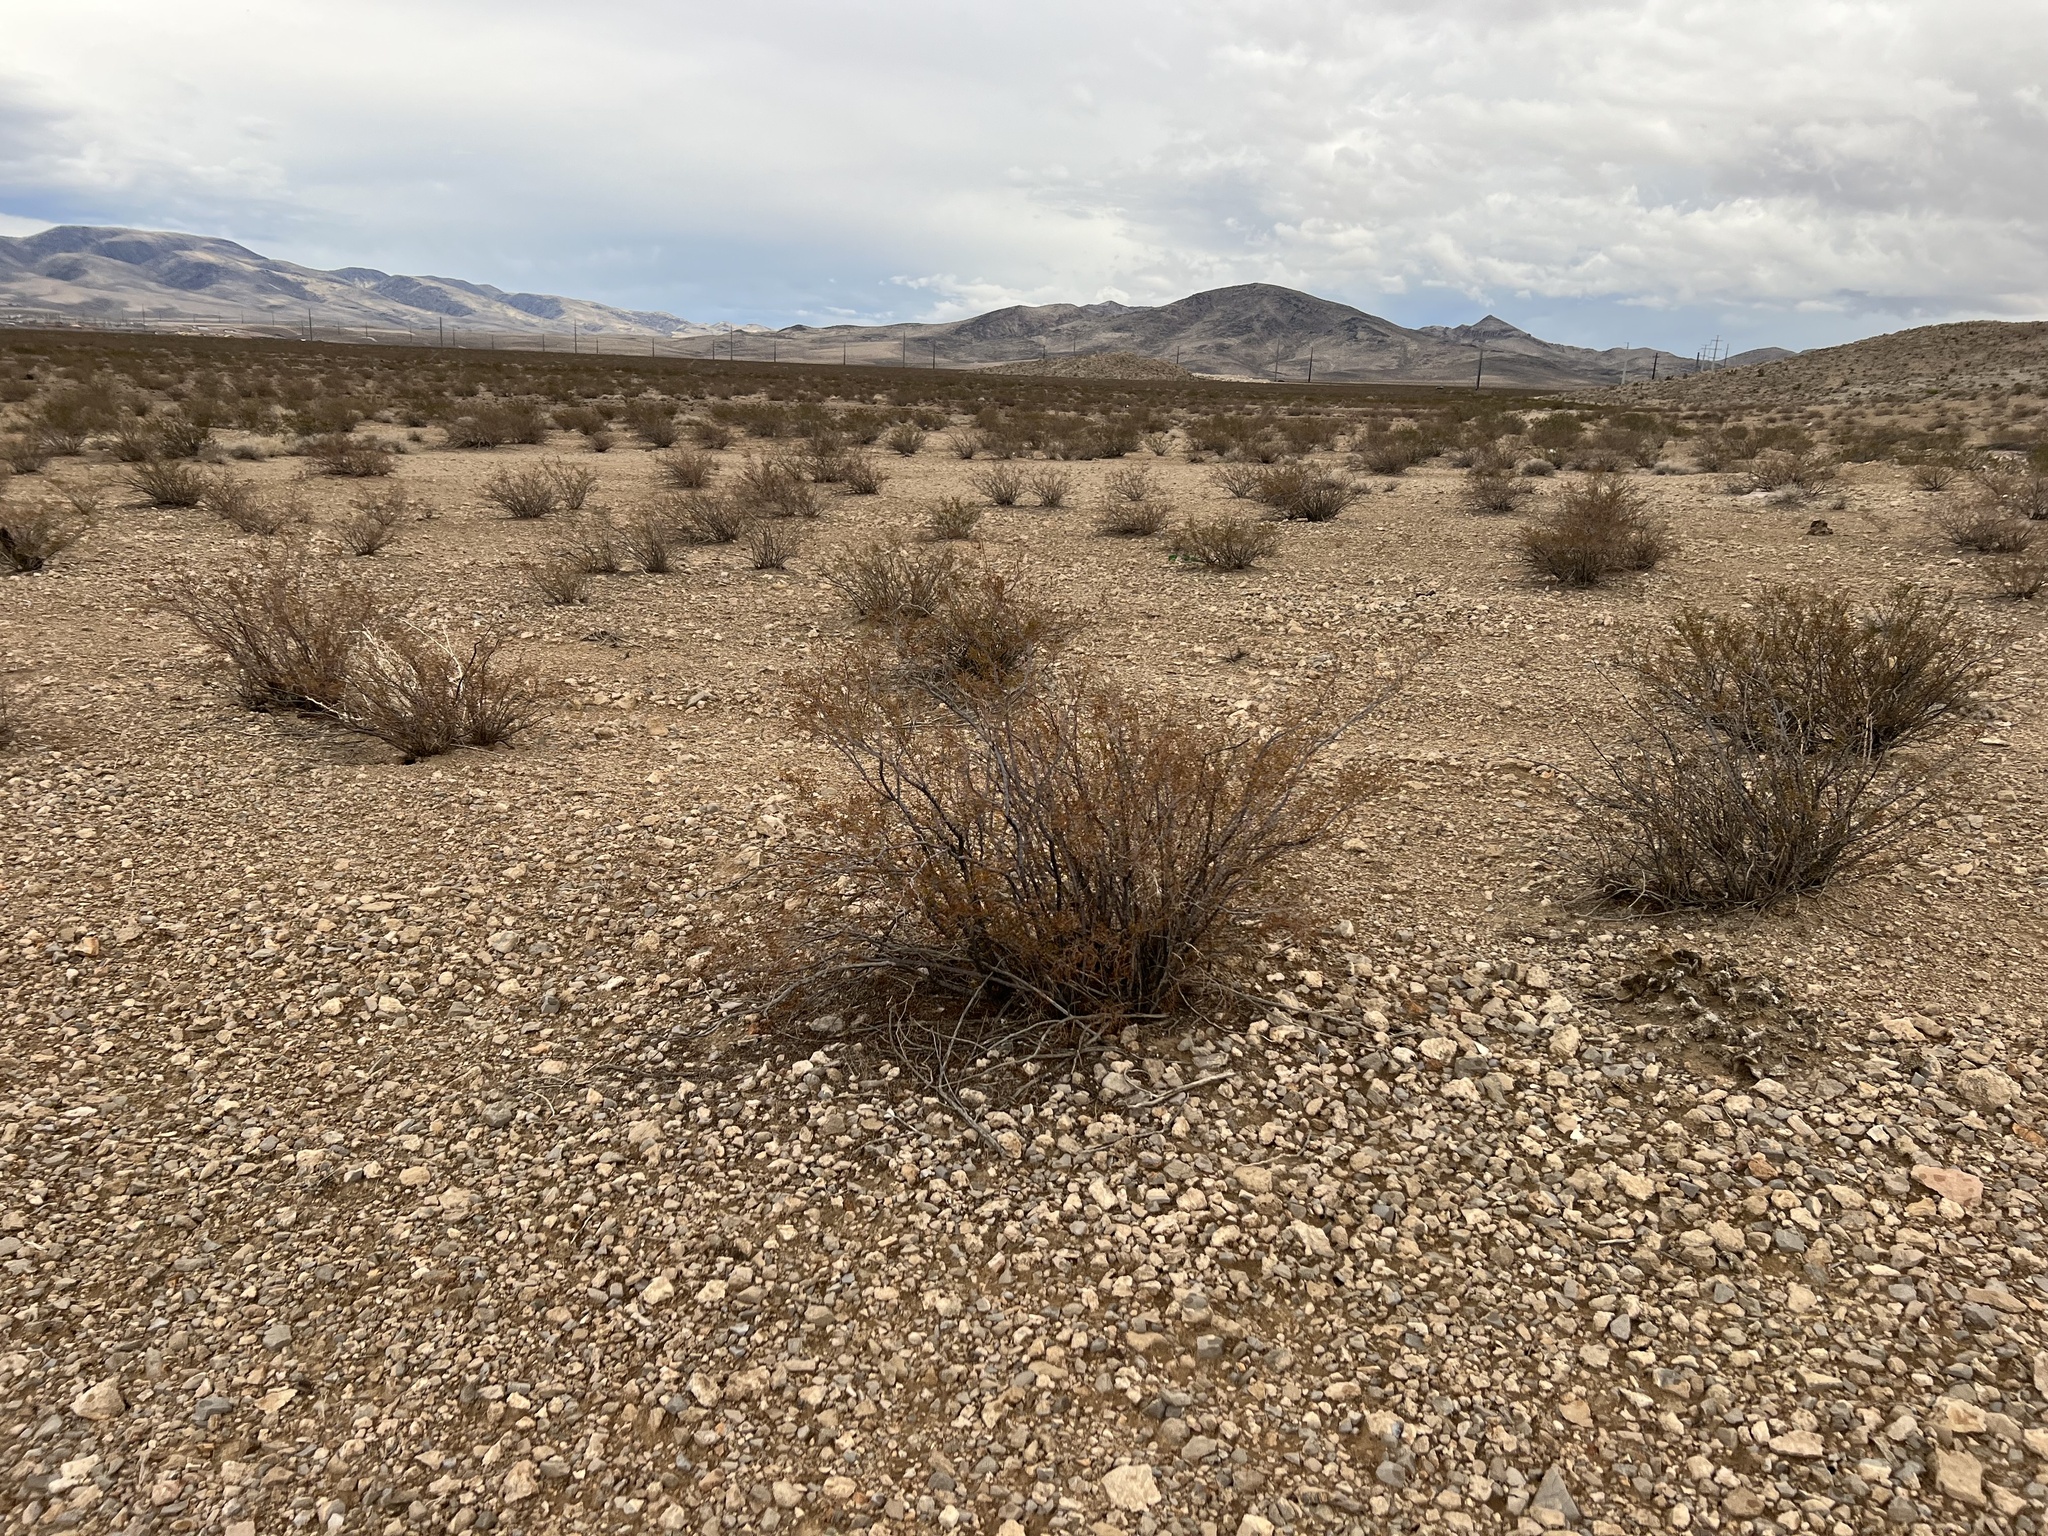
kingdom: Plantae
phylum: Tracheophyta
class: Magnoliopsida
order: Zygophyllales
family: Zygophyllaceae
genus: Larrea
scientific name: Larrea tridentata
